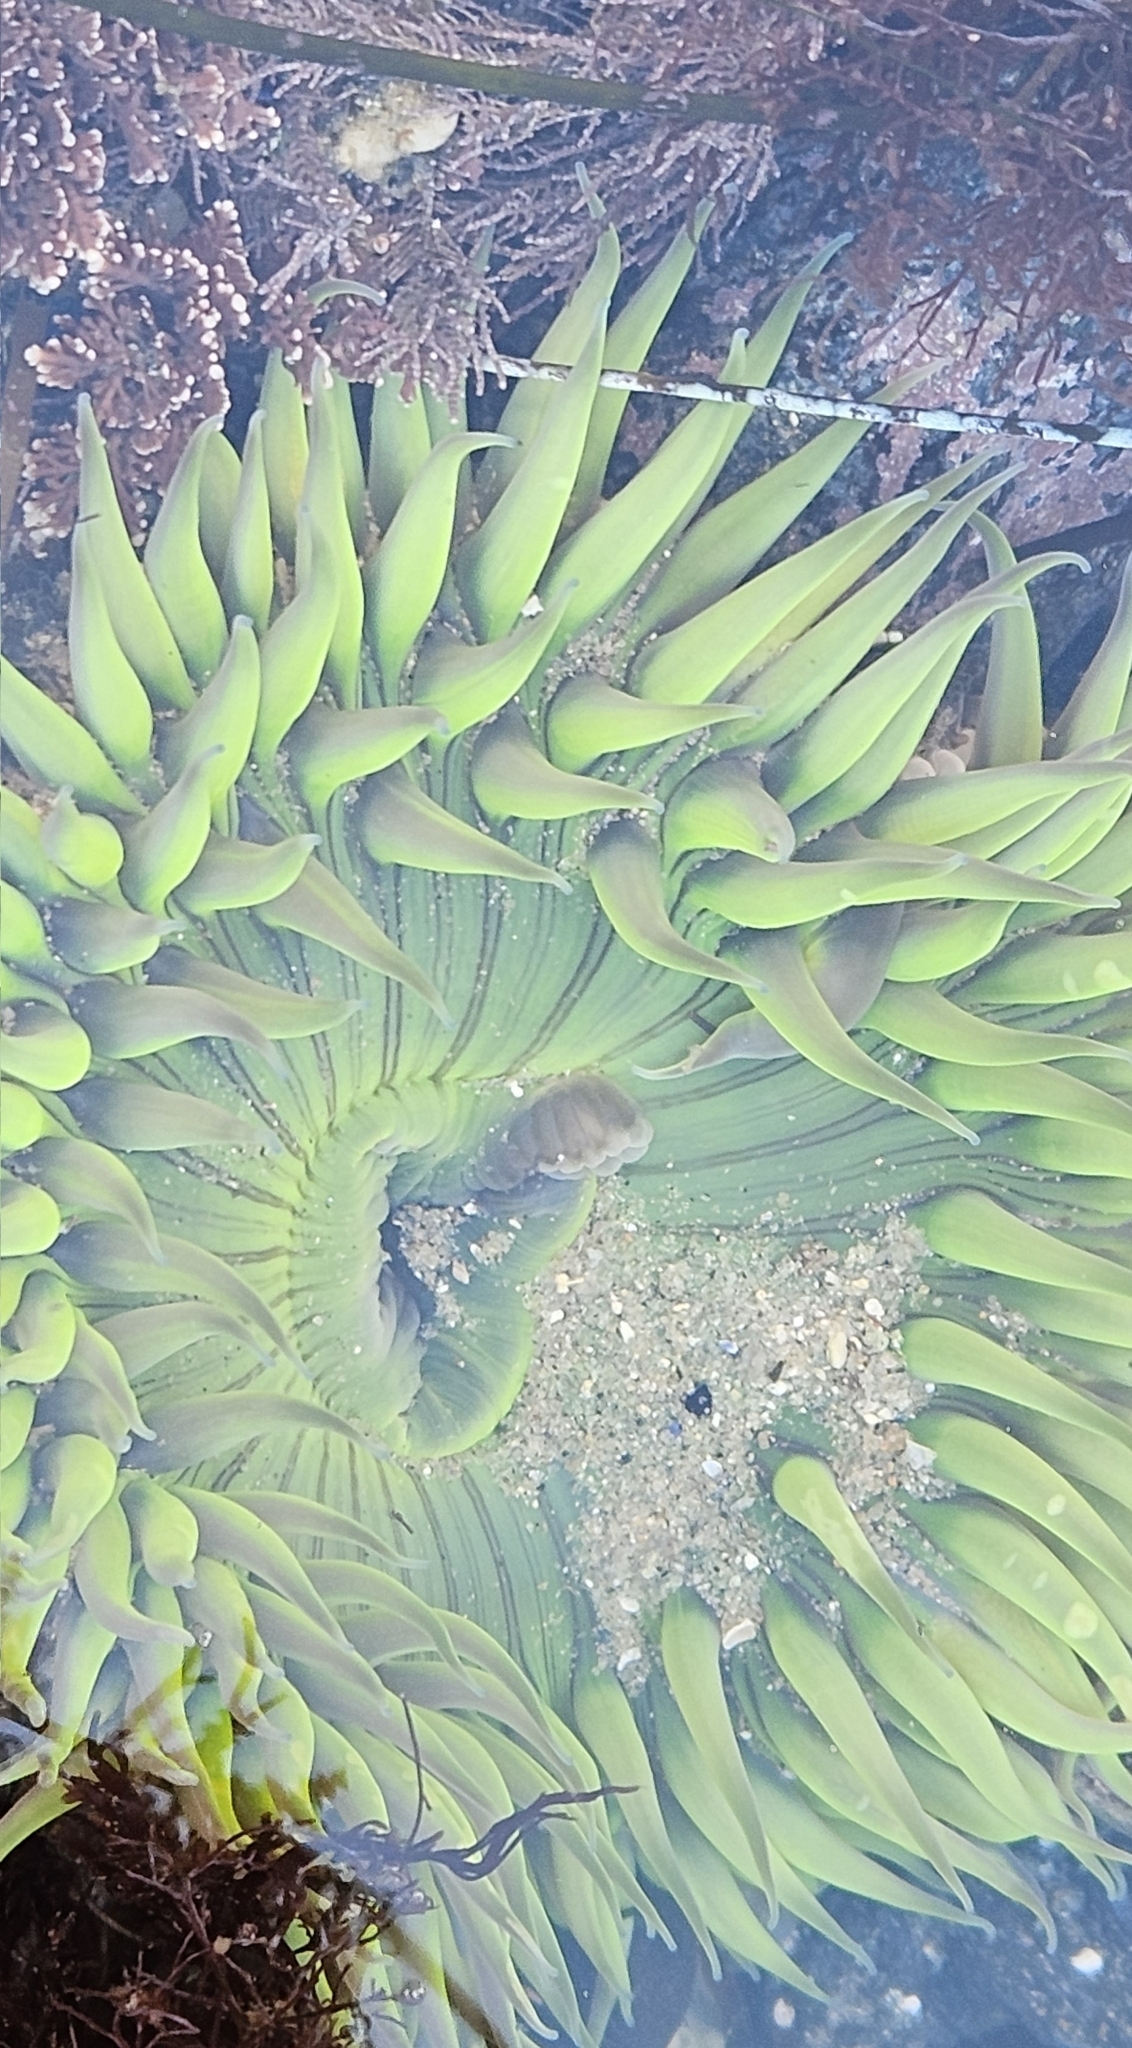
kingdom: Animalia
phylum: Cnidaria
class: Anthozoa
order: Actiniaria
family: Actiniidae
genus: Anthopleura
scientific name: Anthopleura sola
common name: Sun anemone
